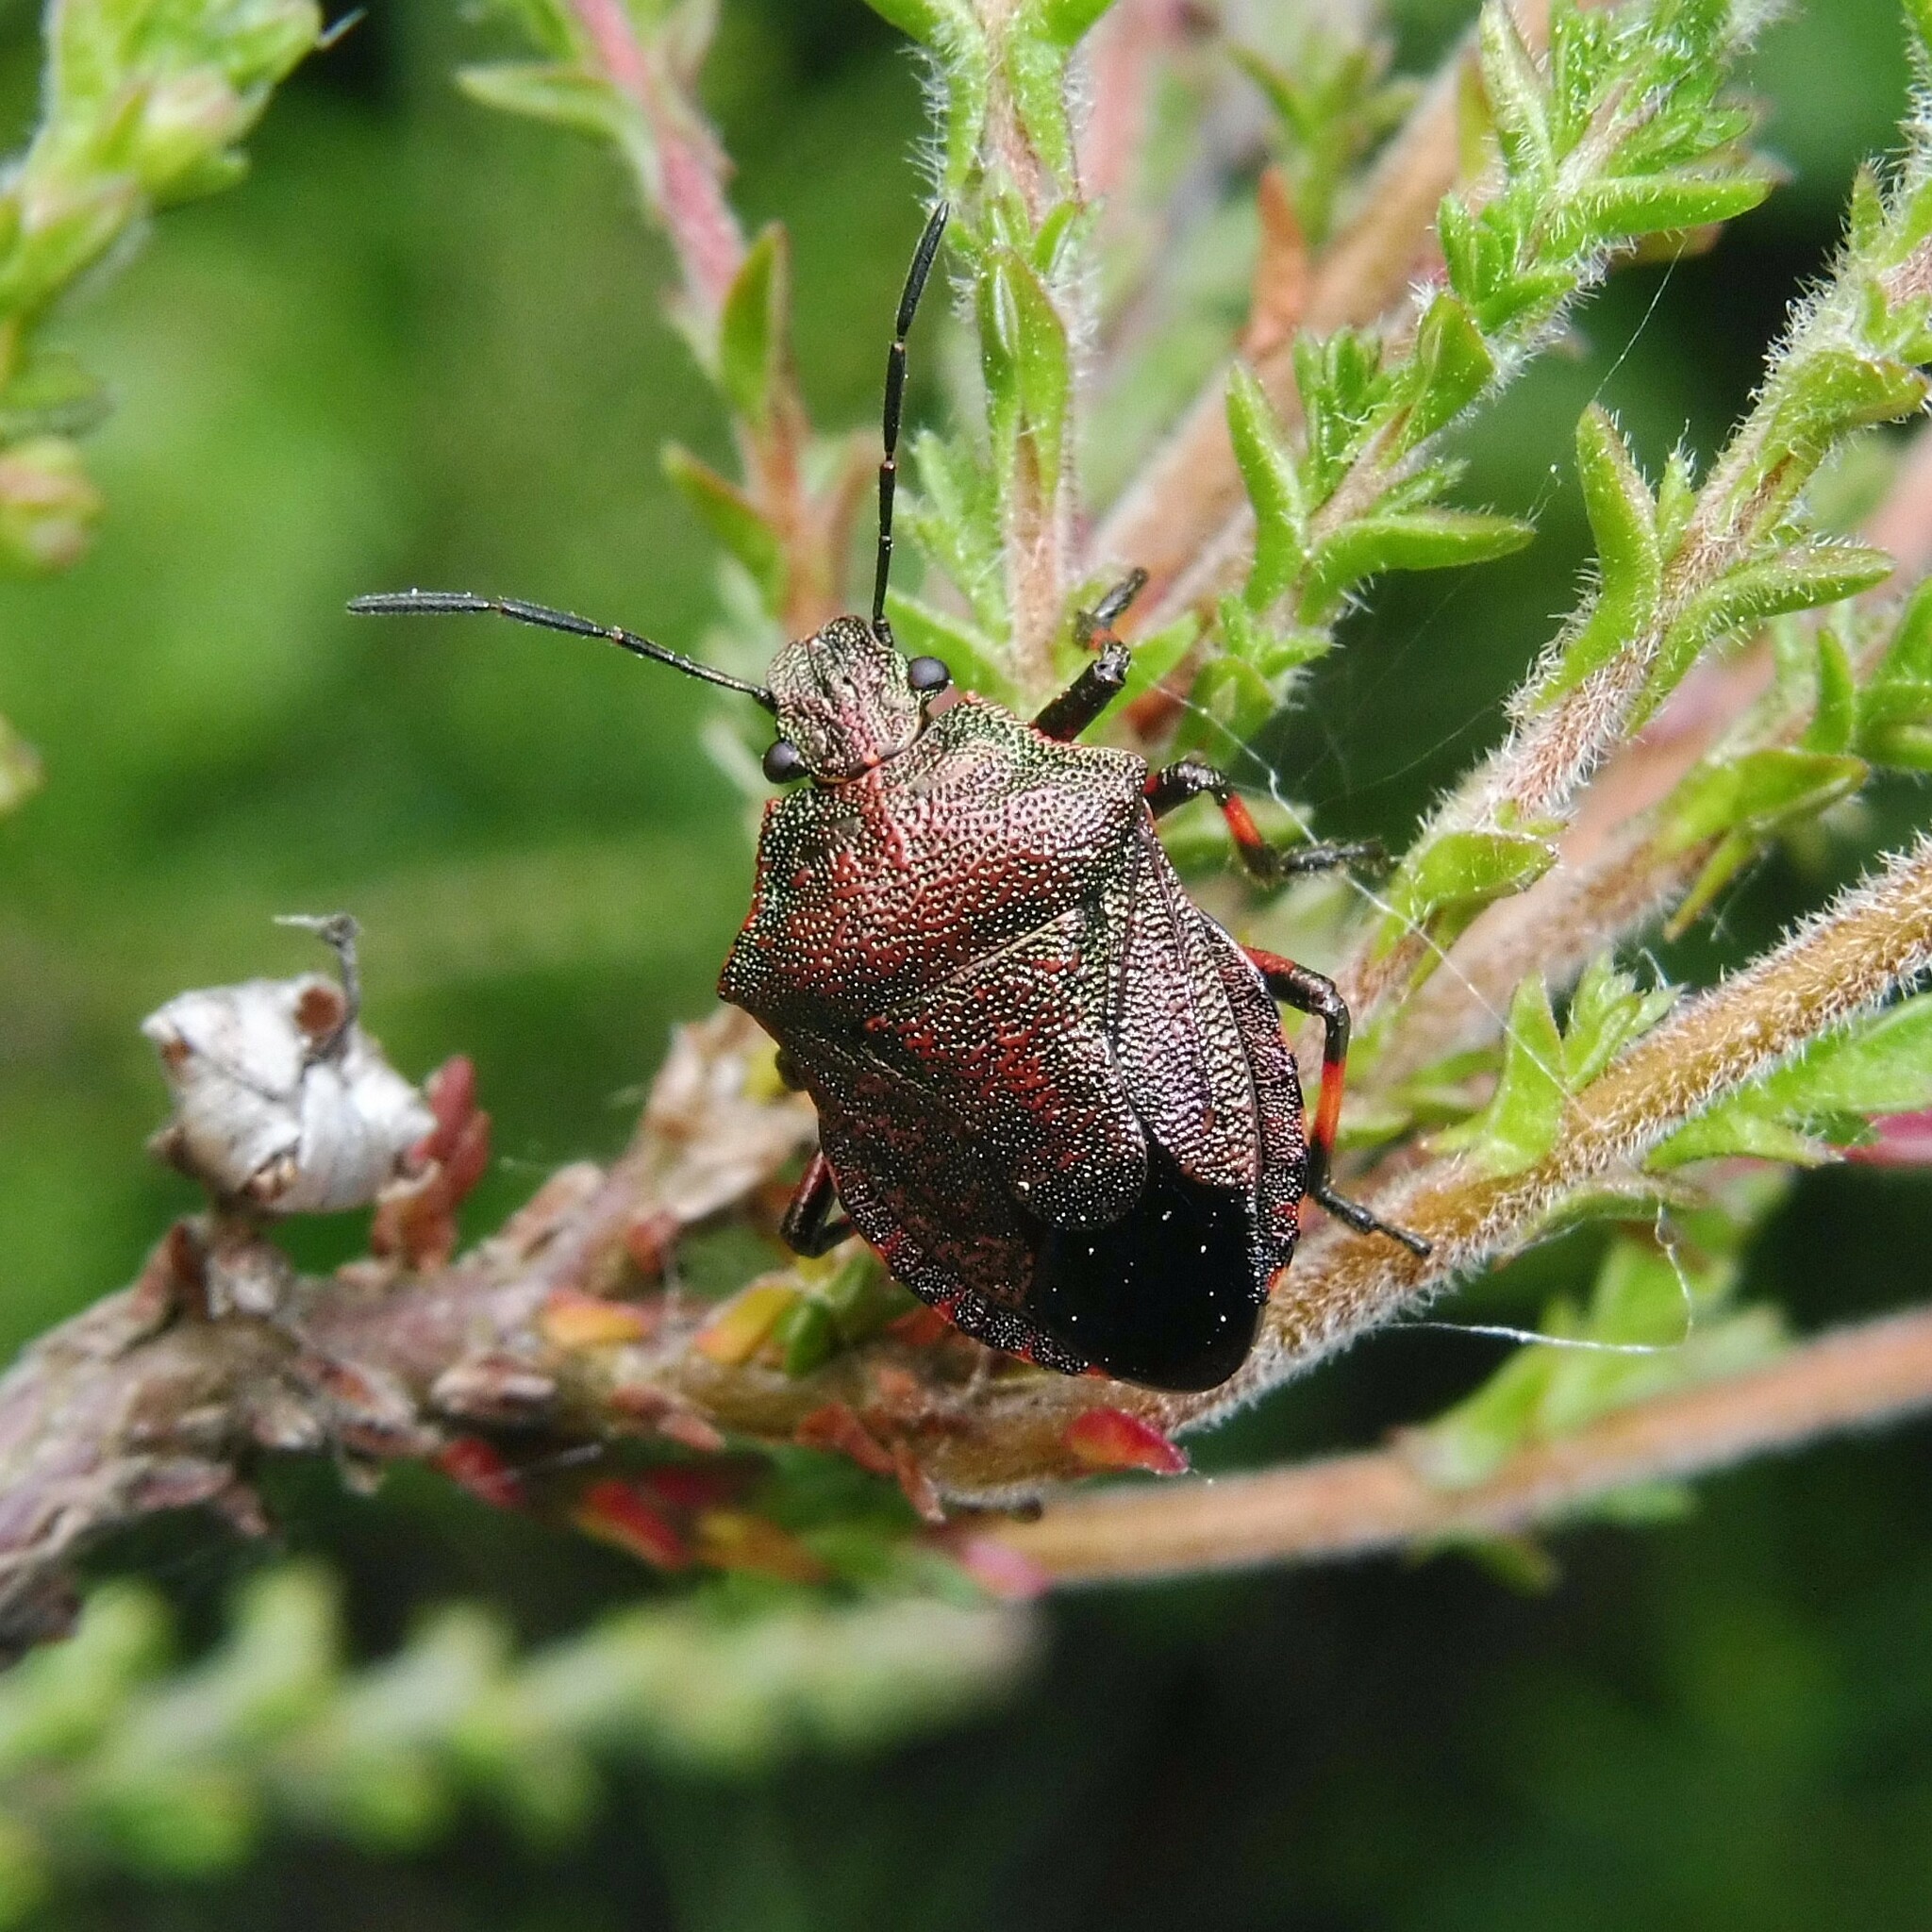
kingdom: Animalia
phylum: Arthropoda
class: Insecta
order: Hemiptera
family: Pentatomidae
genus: Rhacognathus
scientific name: Rhacognathus punctatus
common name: Heather bug
